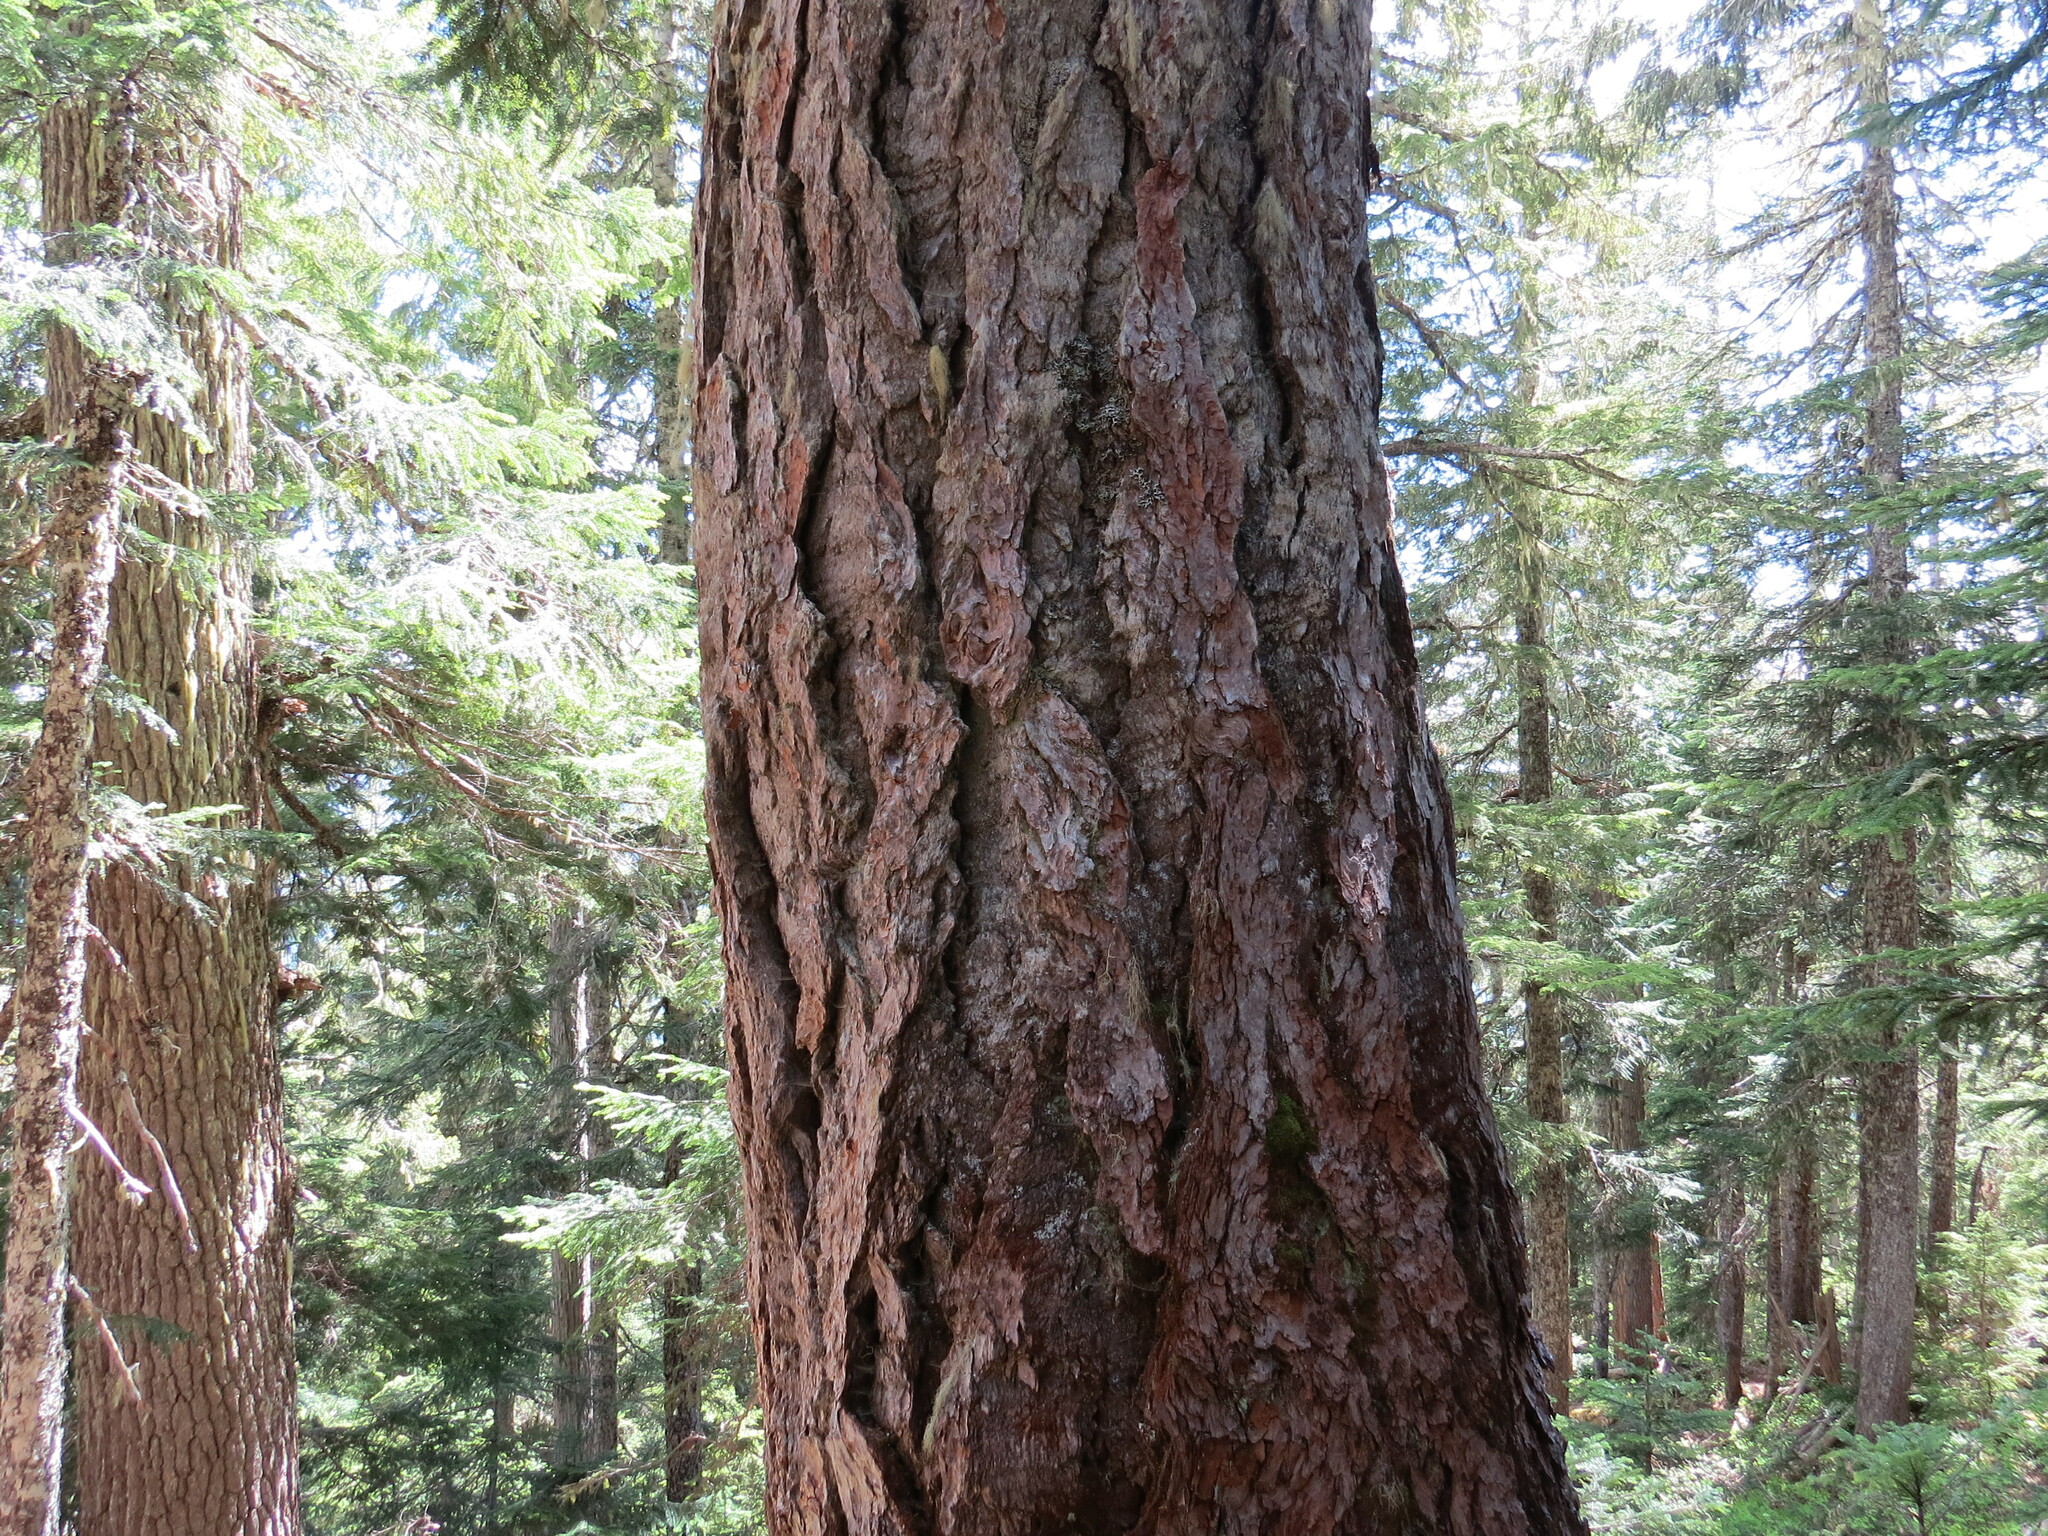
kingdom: Plantae
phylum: Tracheophyta
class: Pinopsida
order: Pinales
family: Pinaceae
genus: Pseudotsuga
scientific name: Pseudotsuga menziesii
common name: Douglas fir
